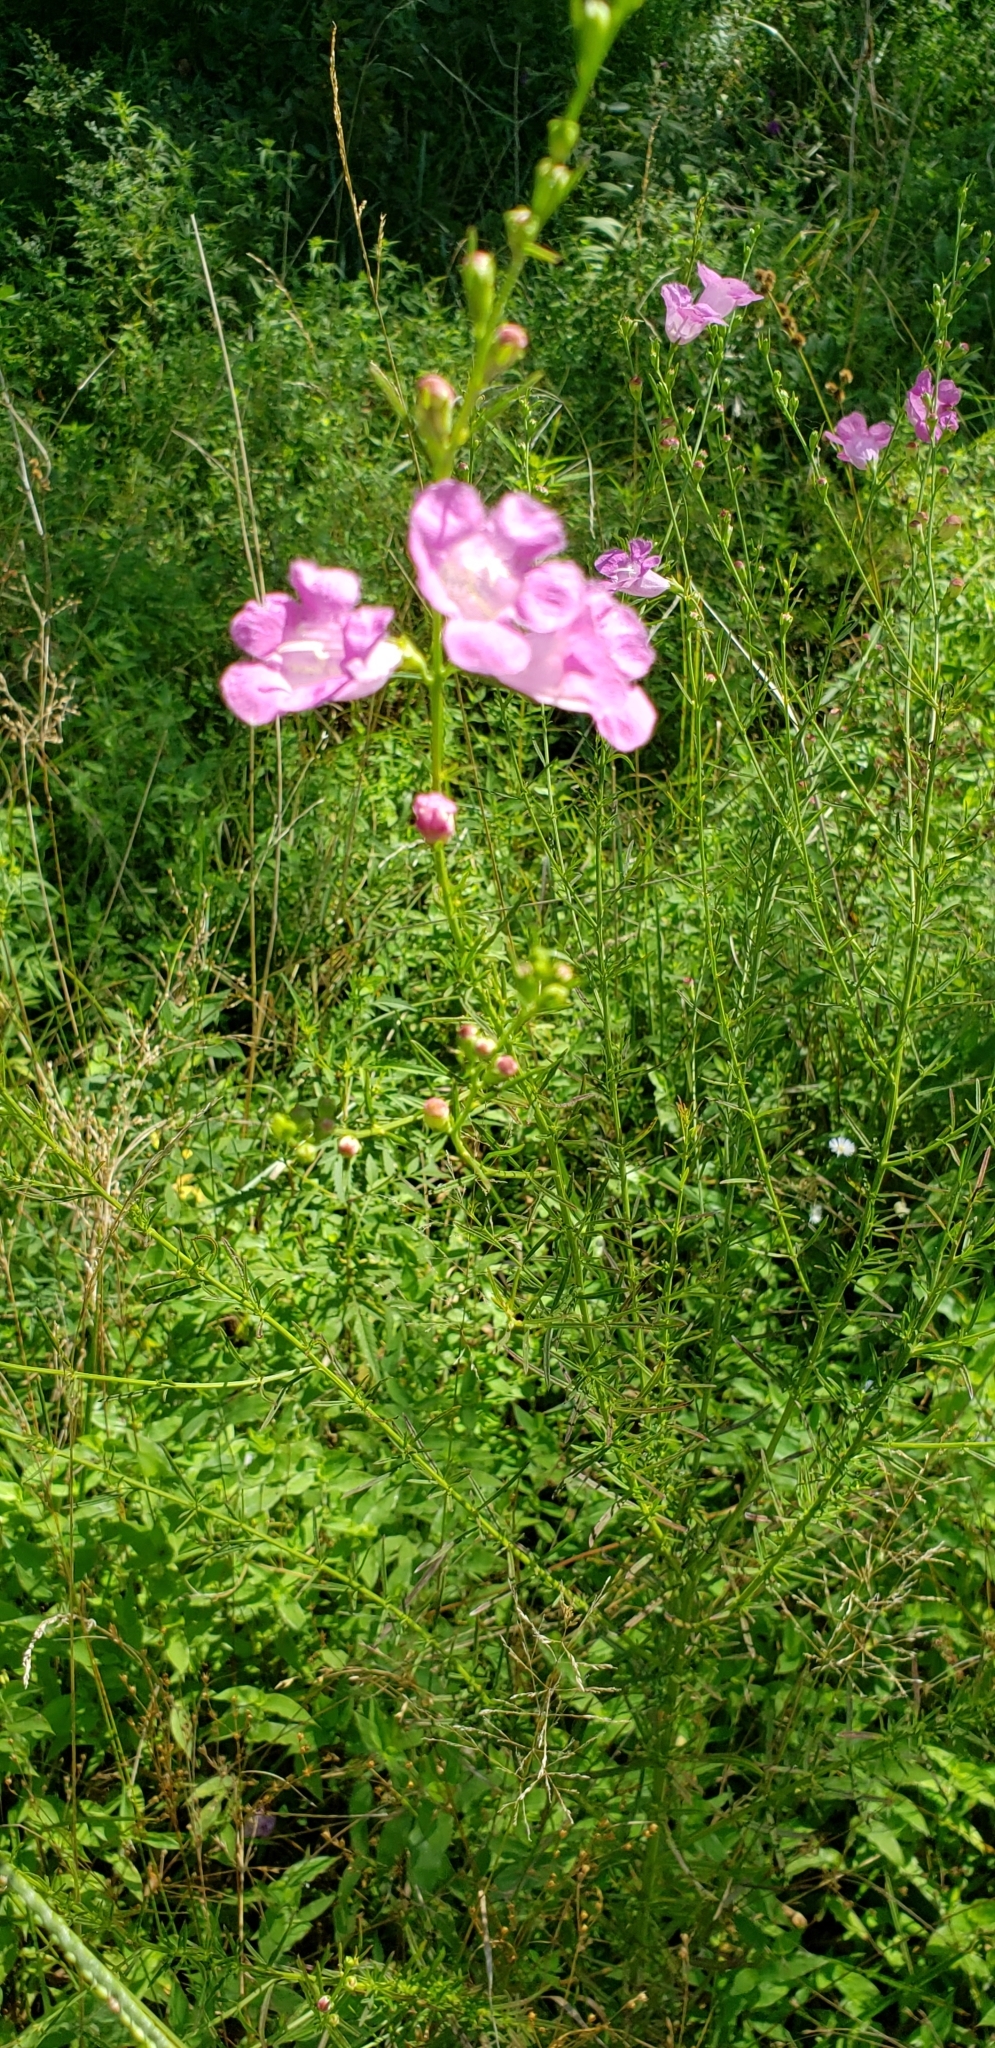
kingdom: Plantae
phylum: Tracheophyta
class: Magnoliopsida
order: Lamiales
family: Orobanchaceae
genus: Agalinis
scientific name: Agalinis fasciculata
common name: Beach false foxglove
